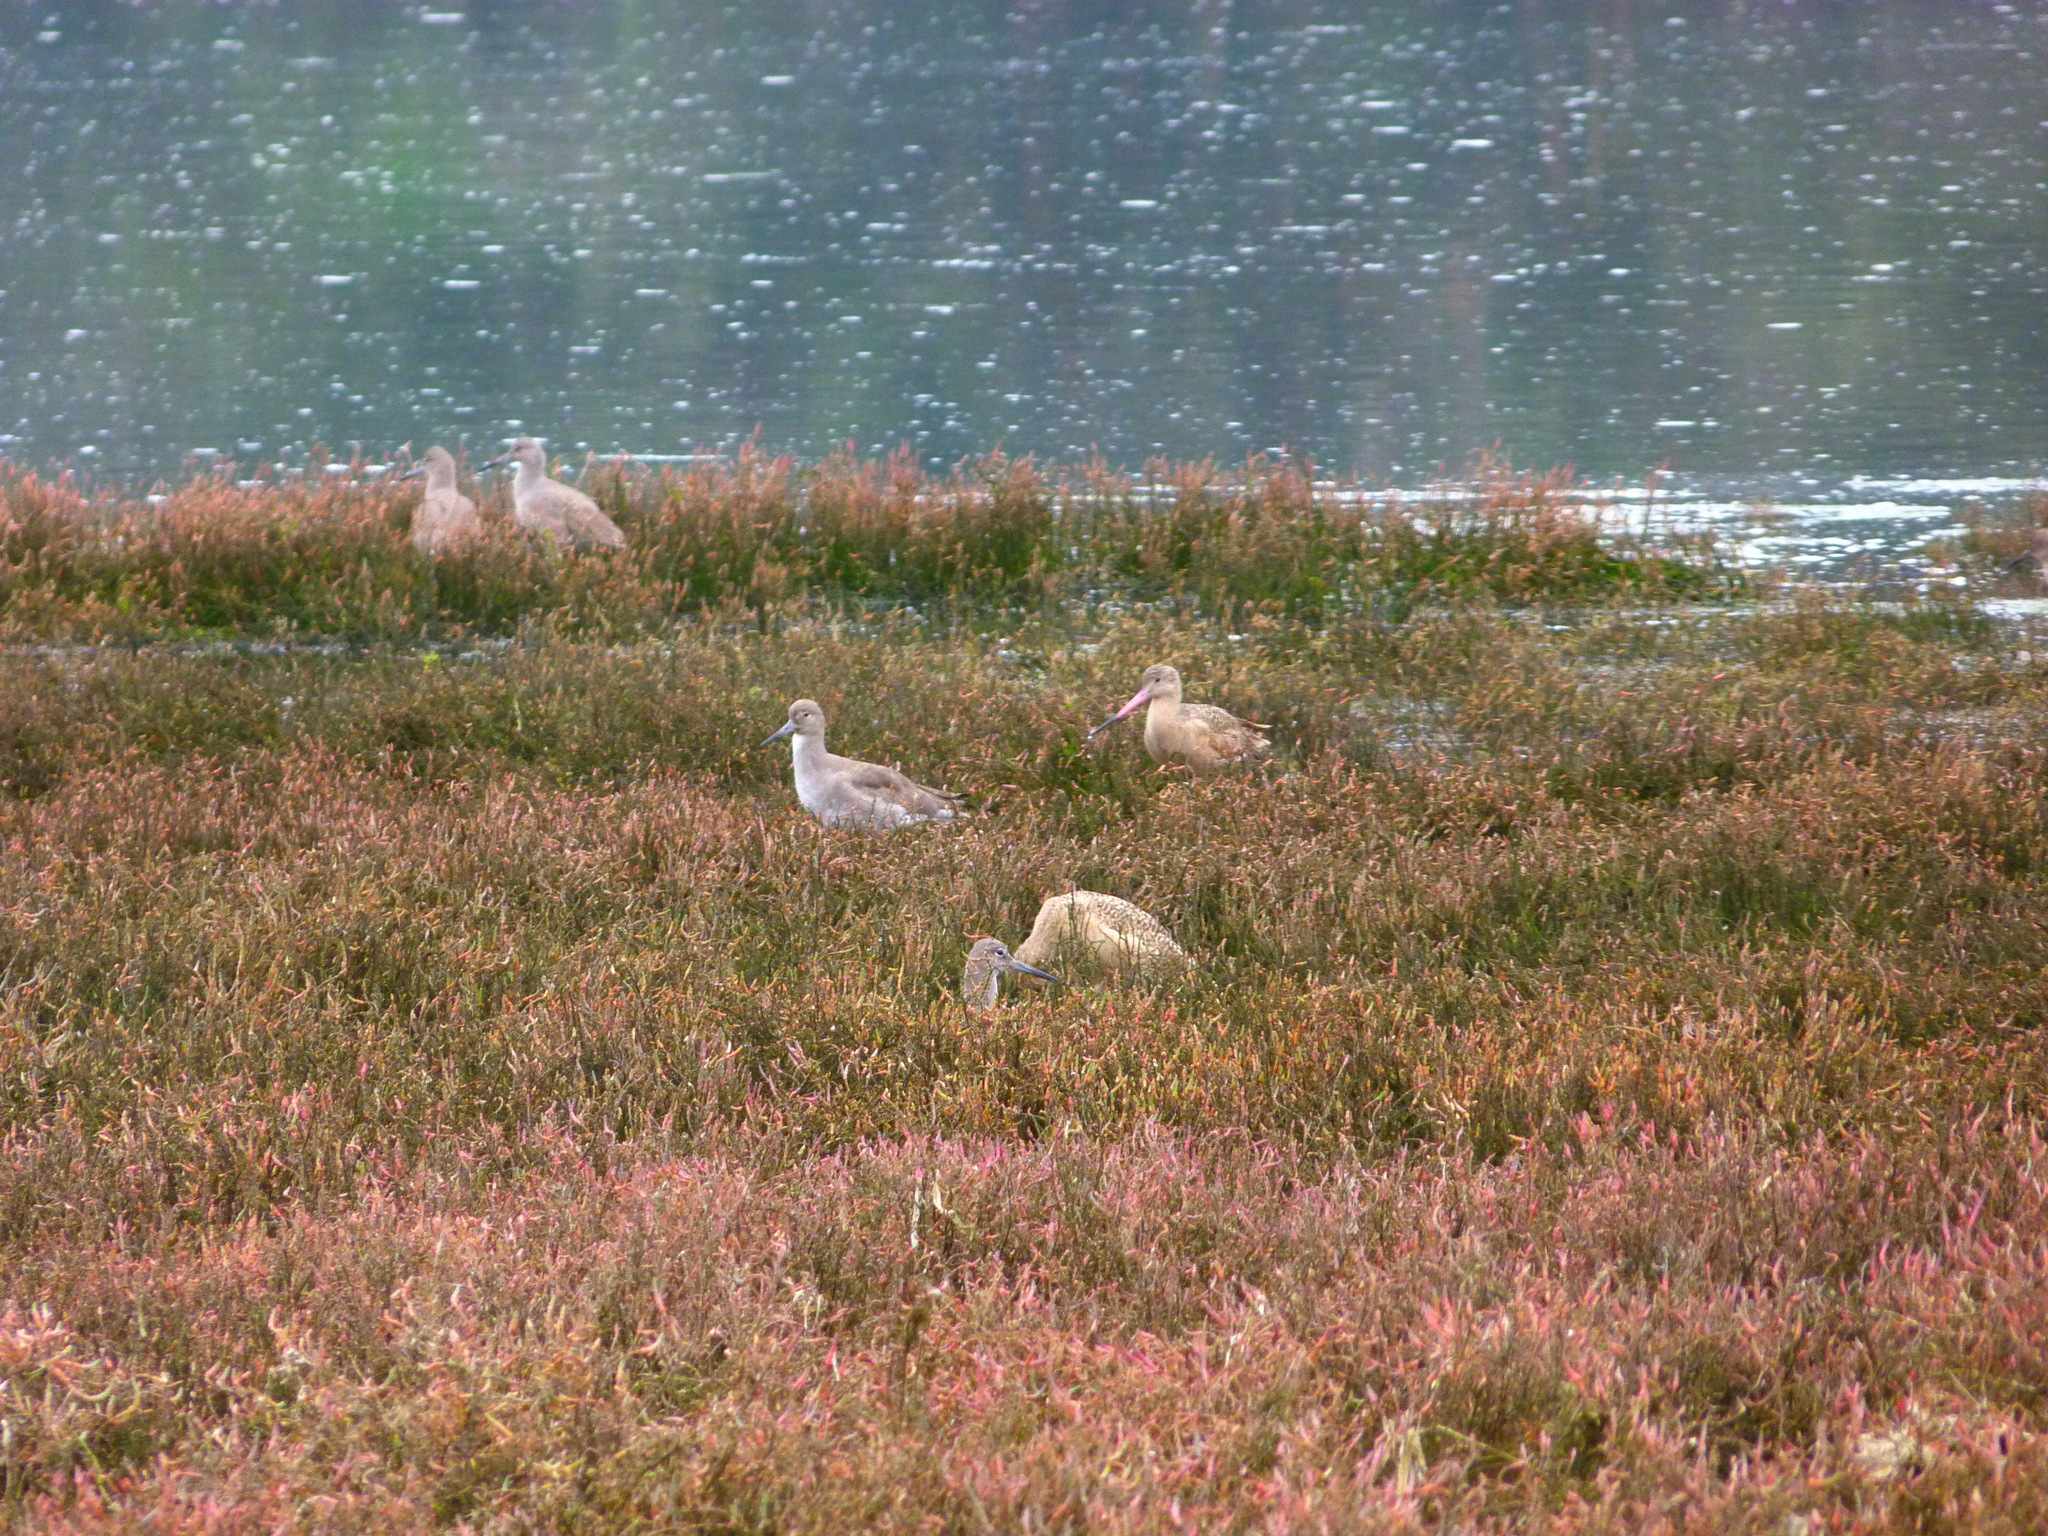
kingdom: Animalia
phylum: Chordata
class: Aves
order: Charadriiformes
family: Scolopacidae
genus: Limosa
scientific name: Limosa fedoa
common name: Marbled godwit
